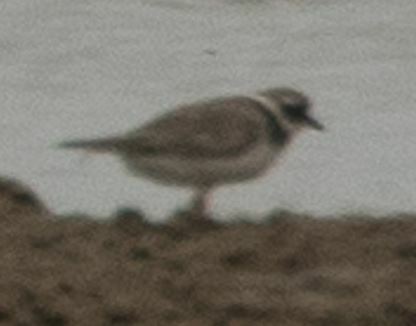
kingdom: Animalia
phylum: Chordata
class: Aves
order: Charadriiformes
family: Charadriidae
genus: Charadrius
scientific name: Charadrius hiaticula
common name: Common ringed plover
